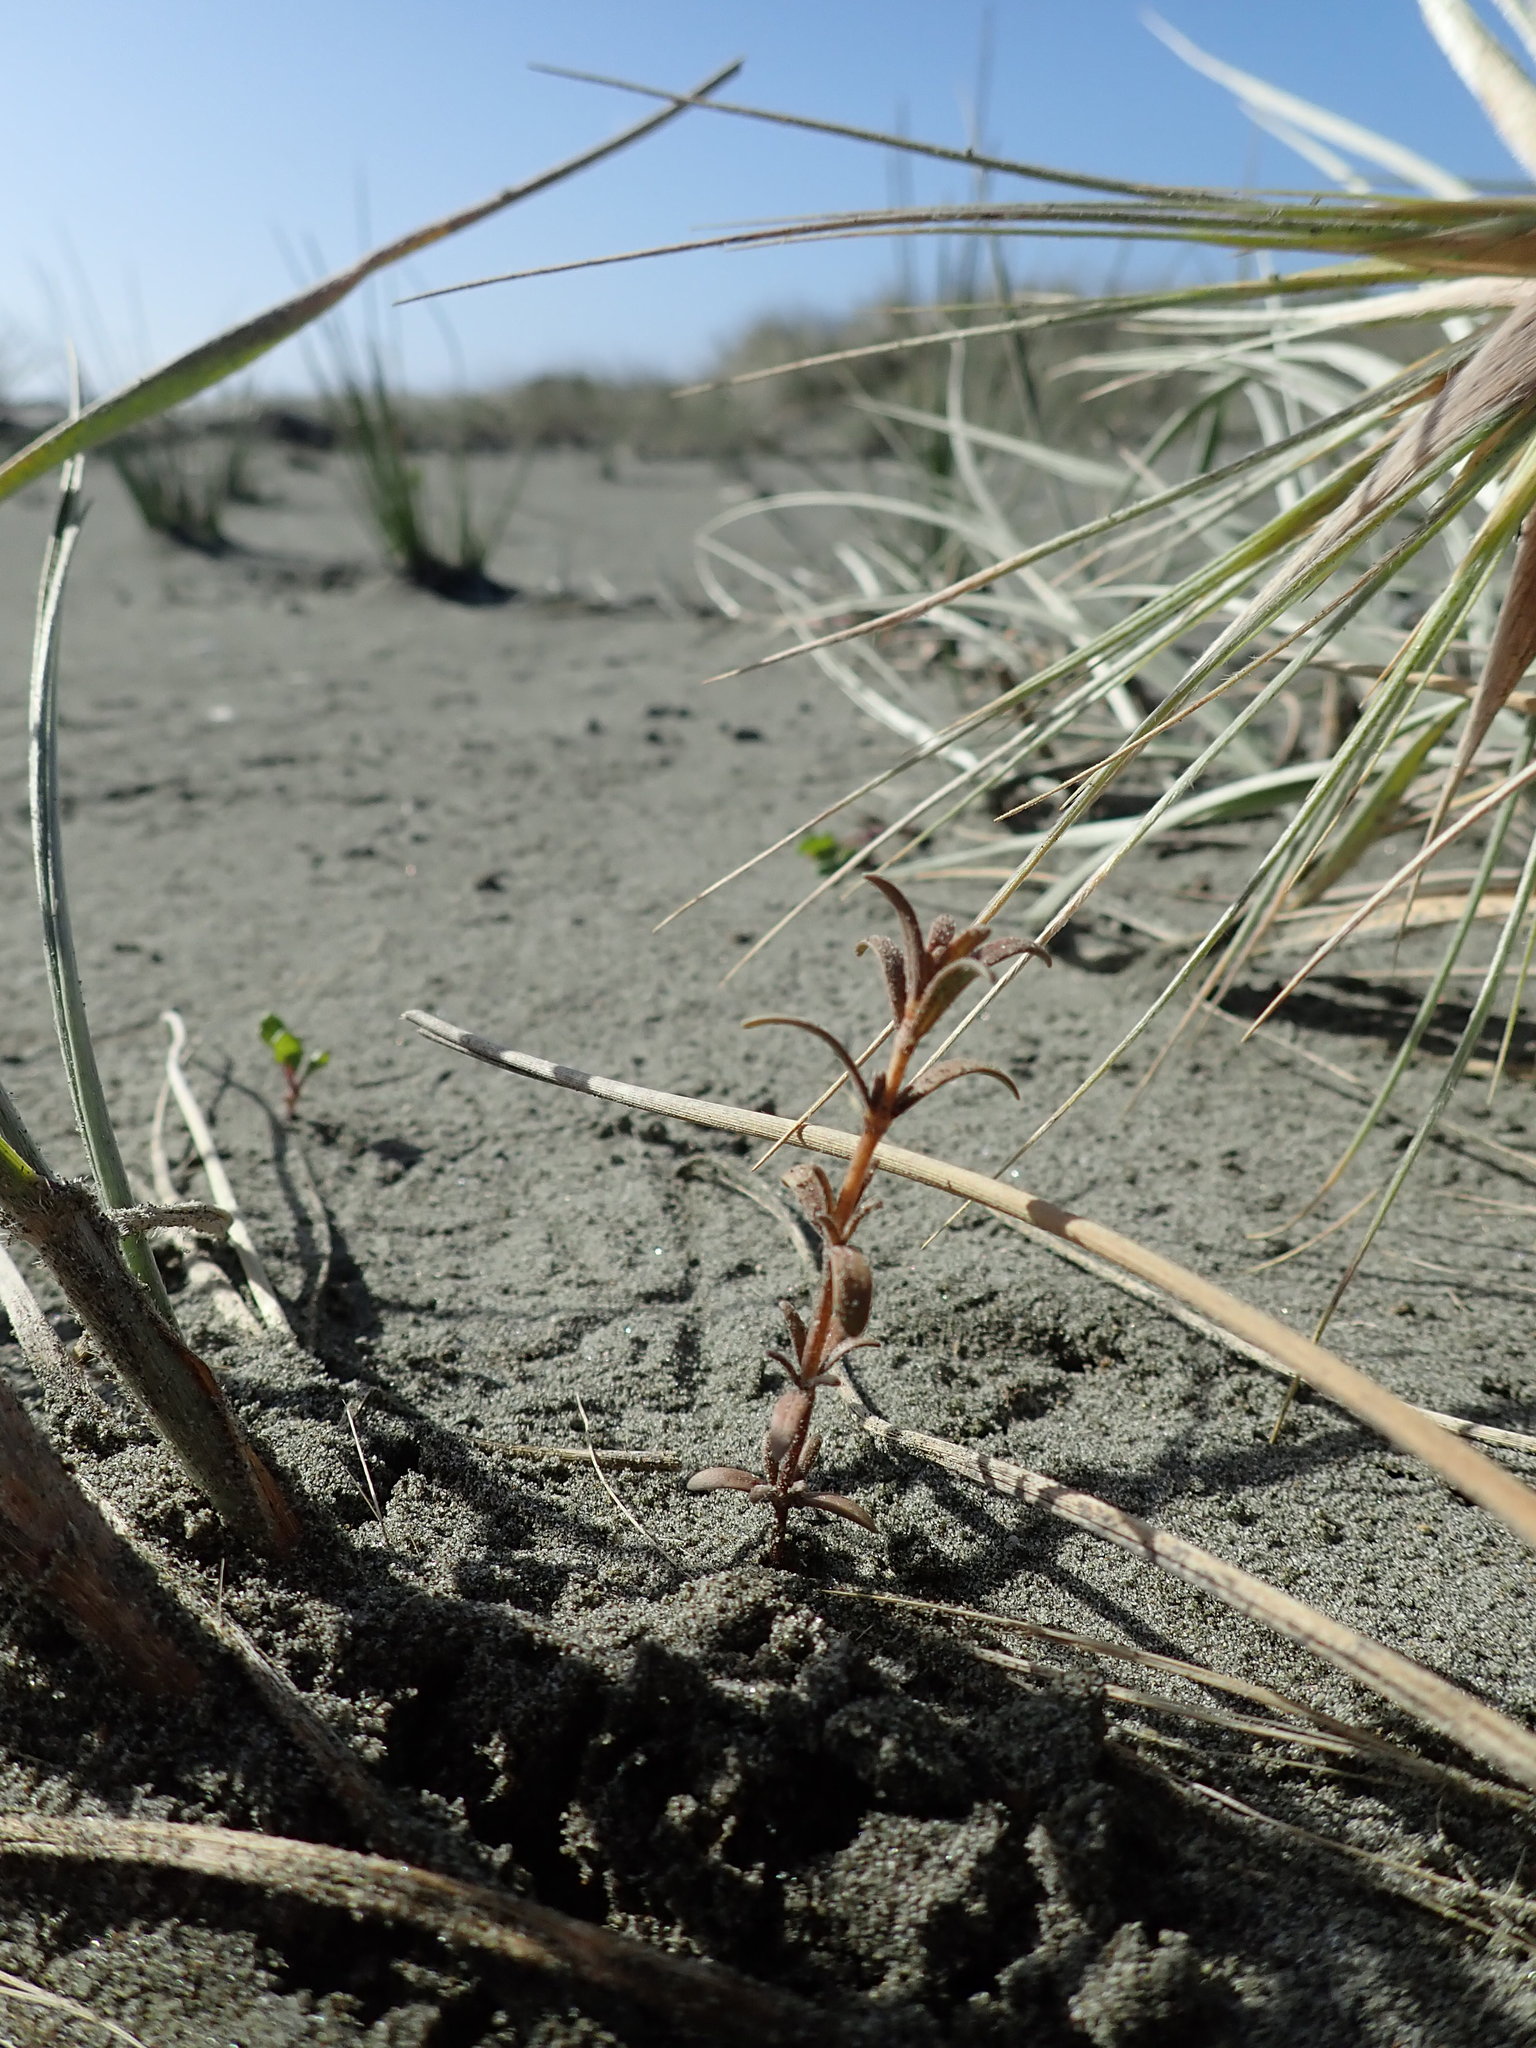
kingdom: Plantae
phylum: Tracheophyta
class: Magnoliopsida
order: Gentianales
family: Rubiaceae
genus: Coprosma
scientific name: Coprosma acerosa
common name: Sand coprosma
